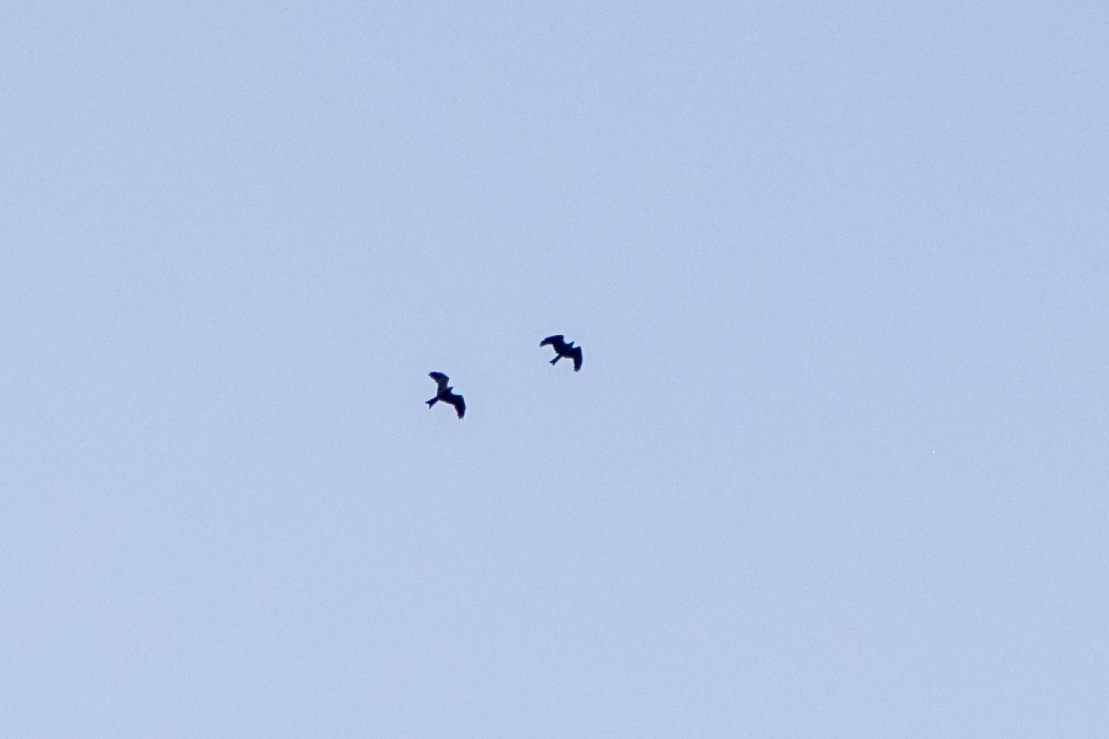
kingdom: Animalia
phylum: Chordata
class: Aves
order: Accipitriformes
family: Accipitridae
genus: Milvus
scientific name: Milvus migrans
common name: Black kite
